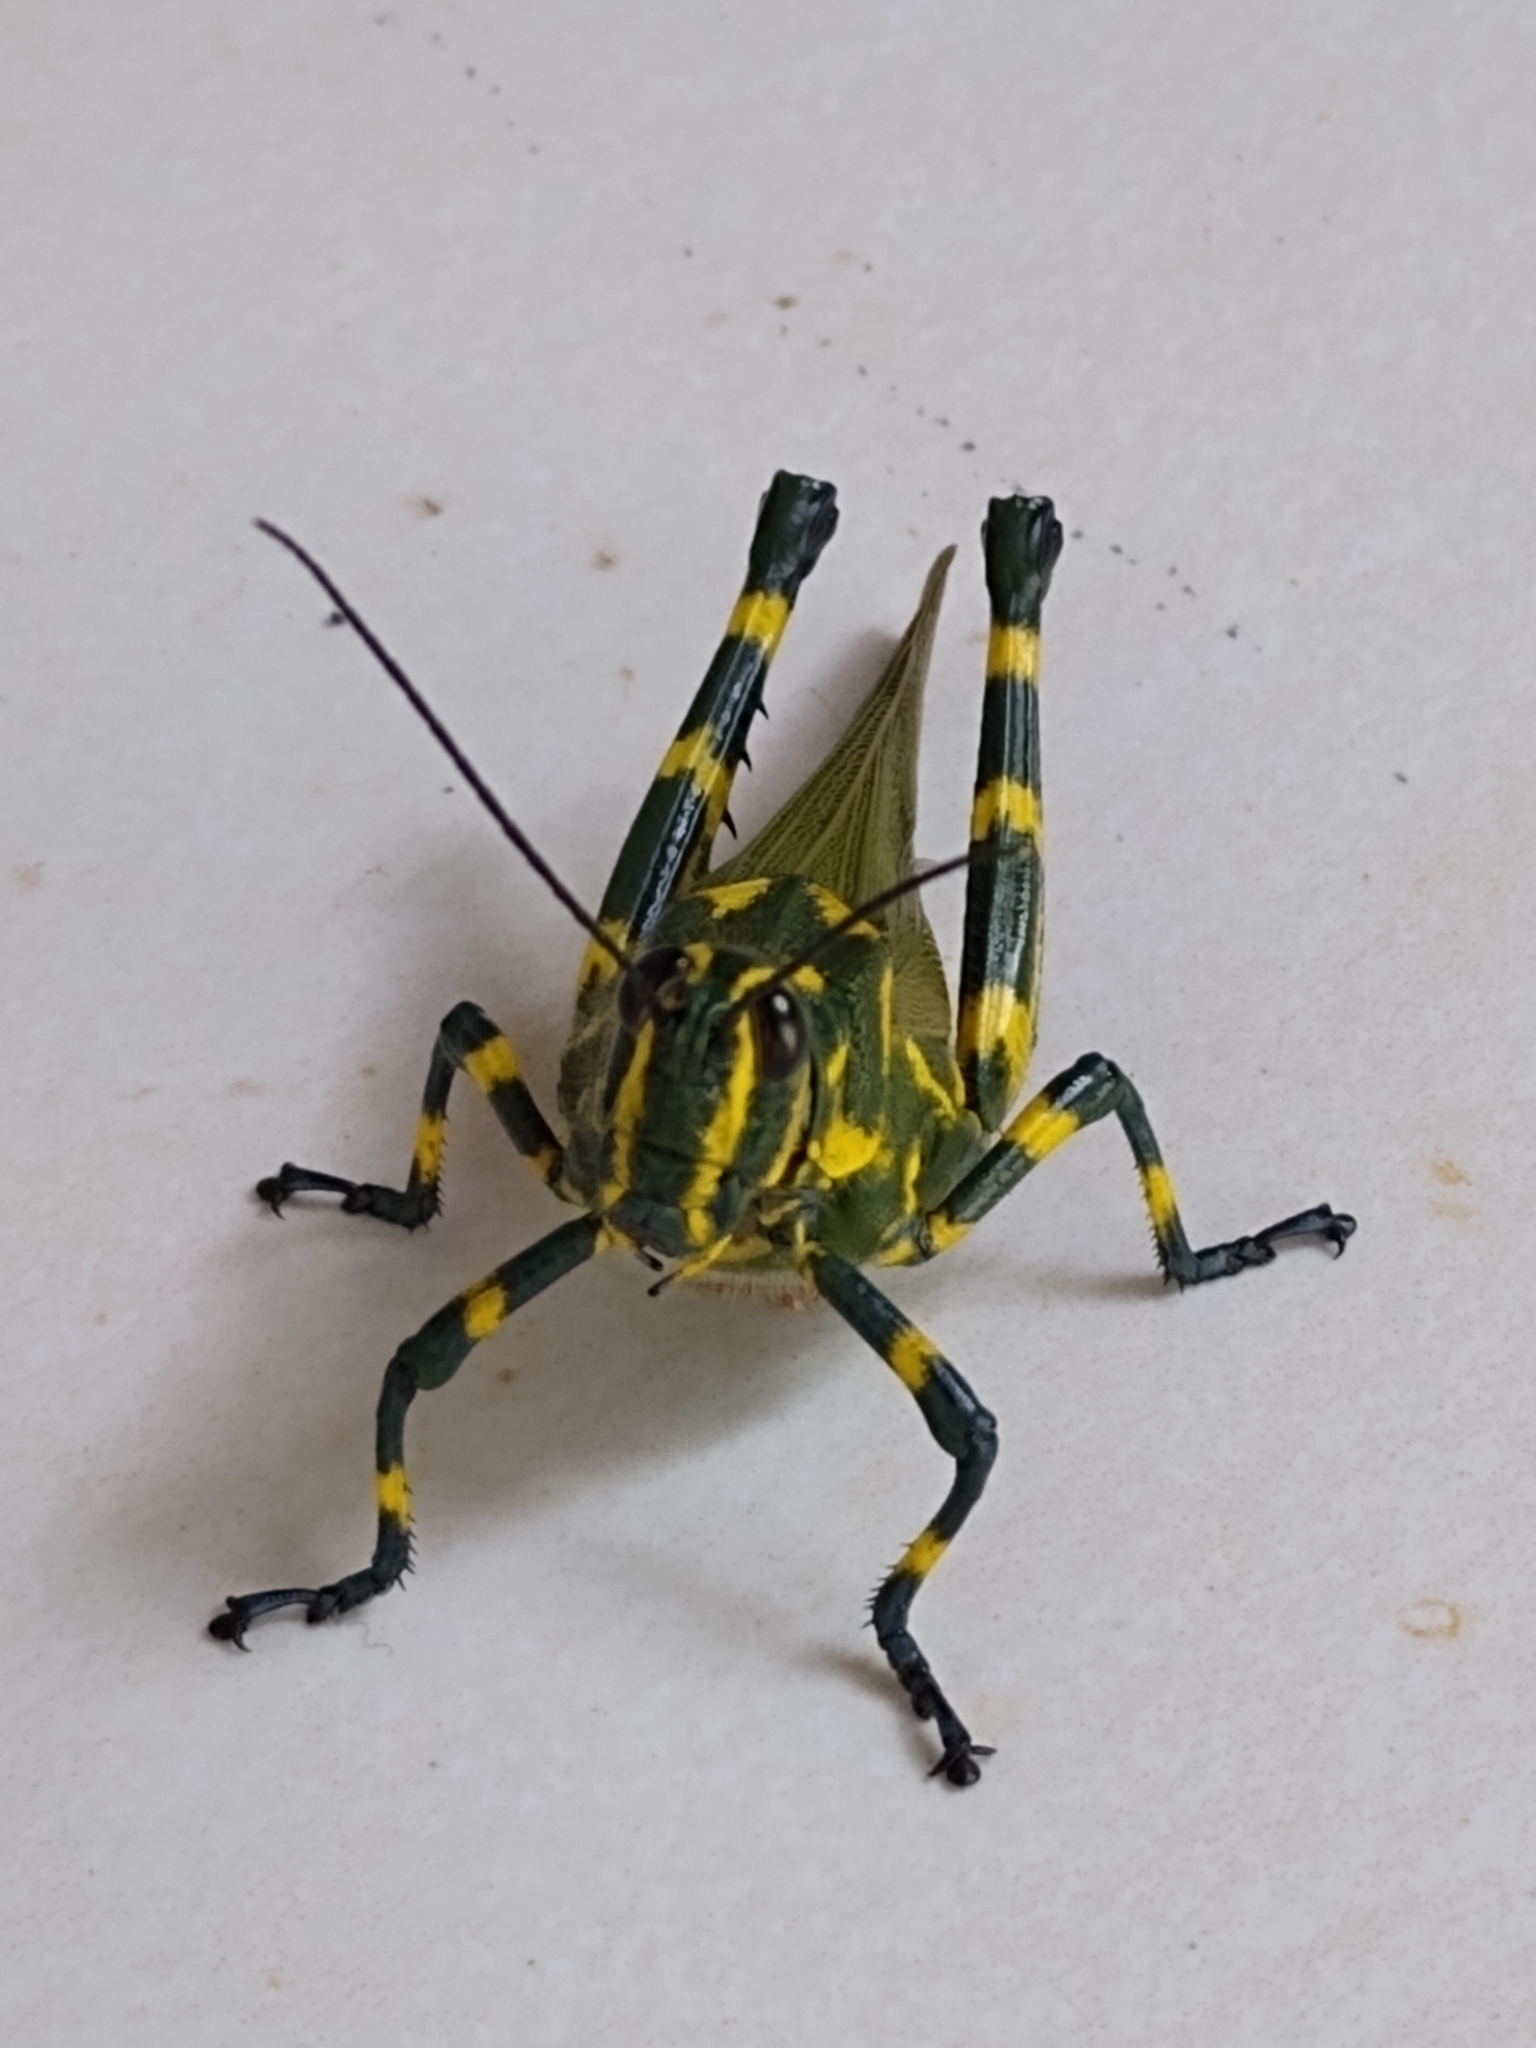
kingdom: Animalia
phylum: Arthropoda
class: Insecta
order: Orthoptera
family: Romaleidae
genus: Chromacris
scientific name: Chromacris speciosa
